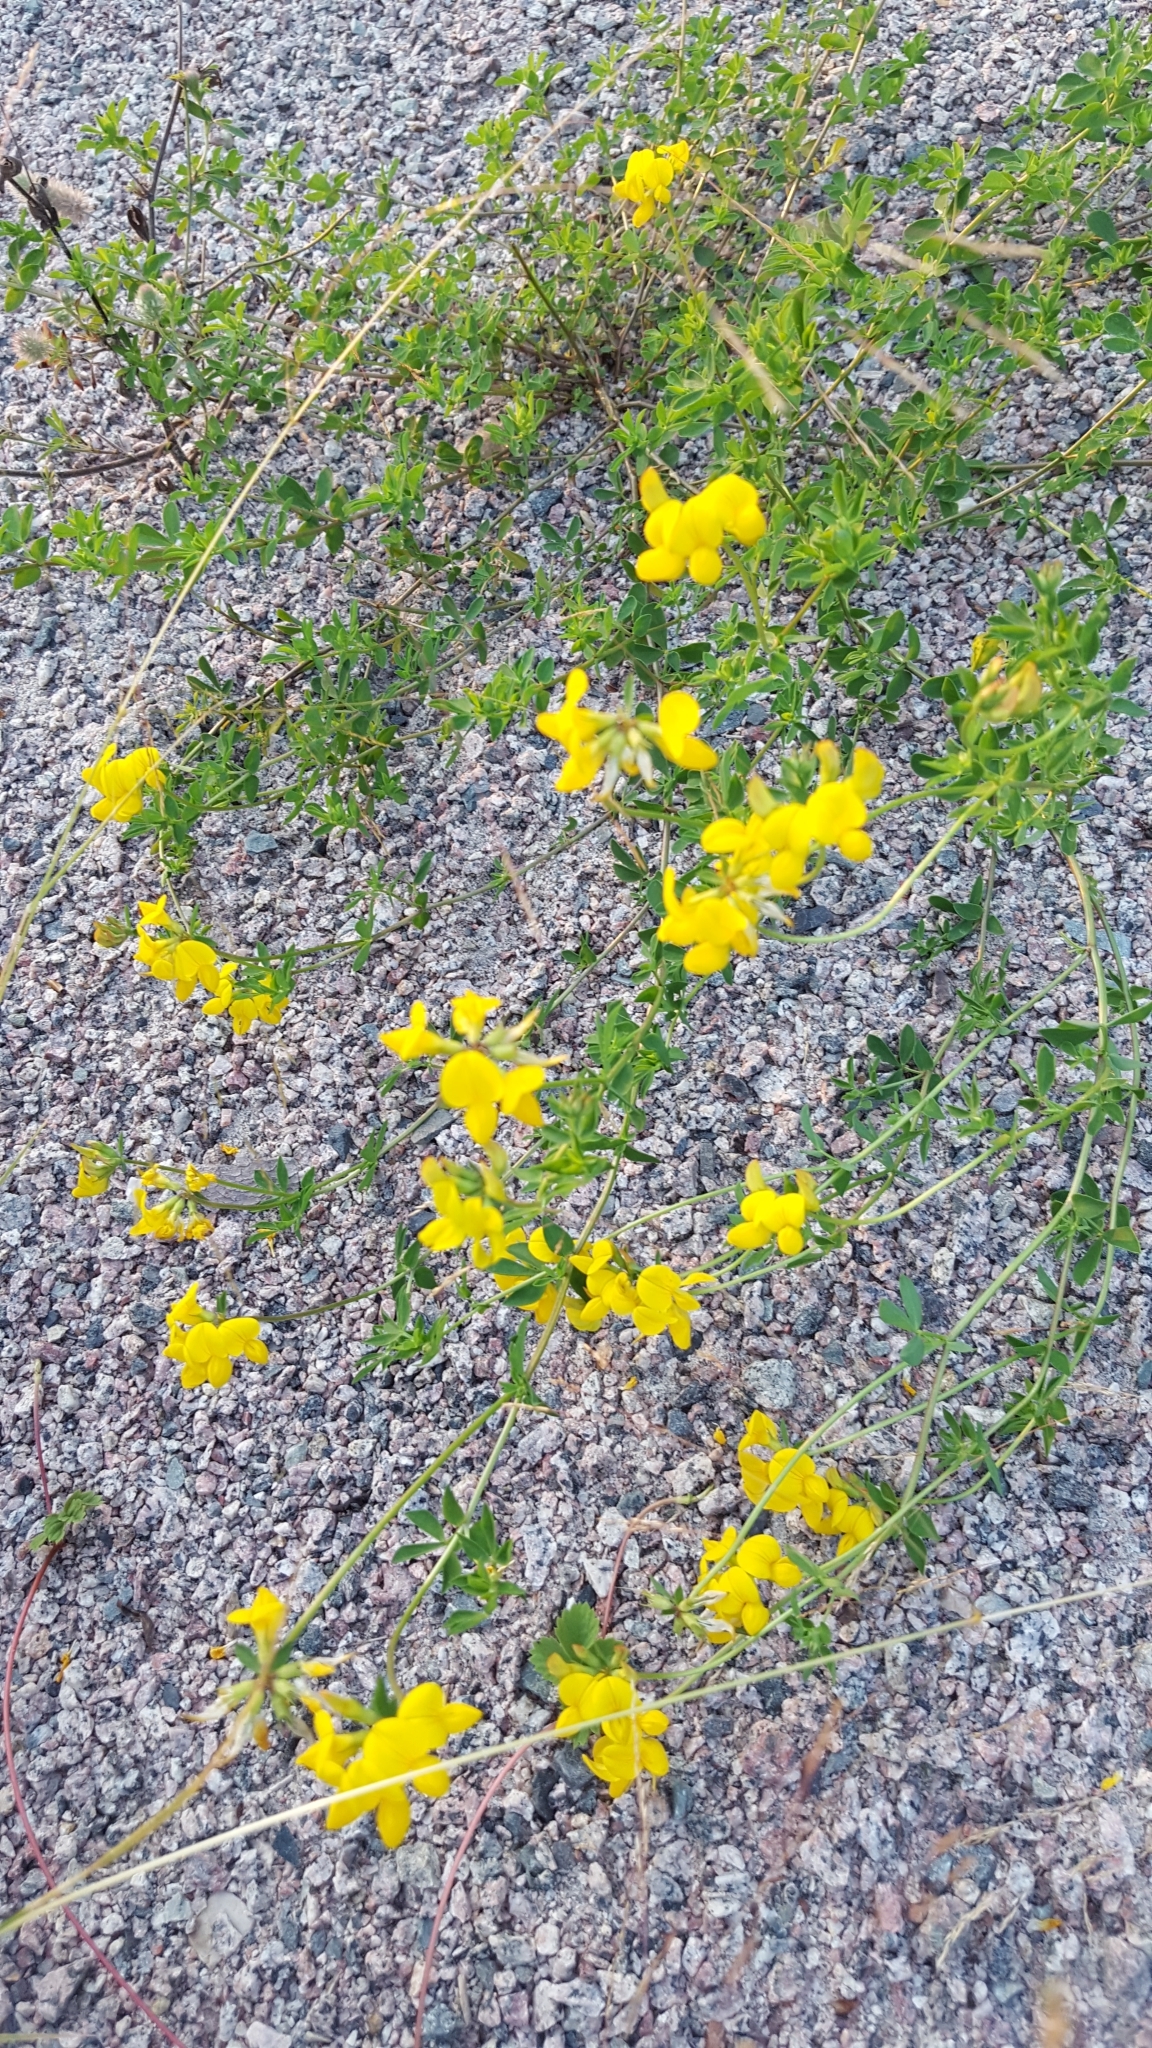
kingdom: Plantae
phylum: Tracheophyta
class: Magnoliopsida
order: Fabales
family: Fabaceae
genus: Lotus
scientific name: Lotus corniculatus
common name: Common bird's-foot-trefoil
